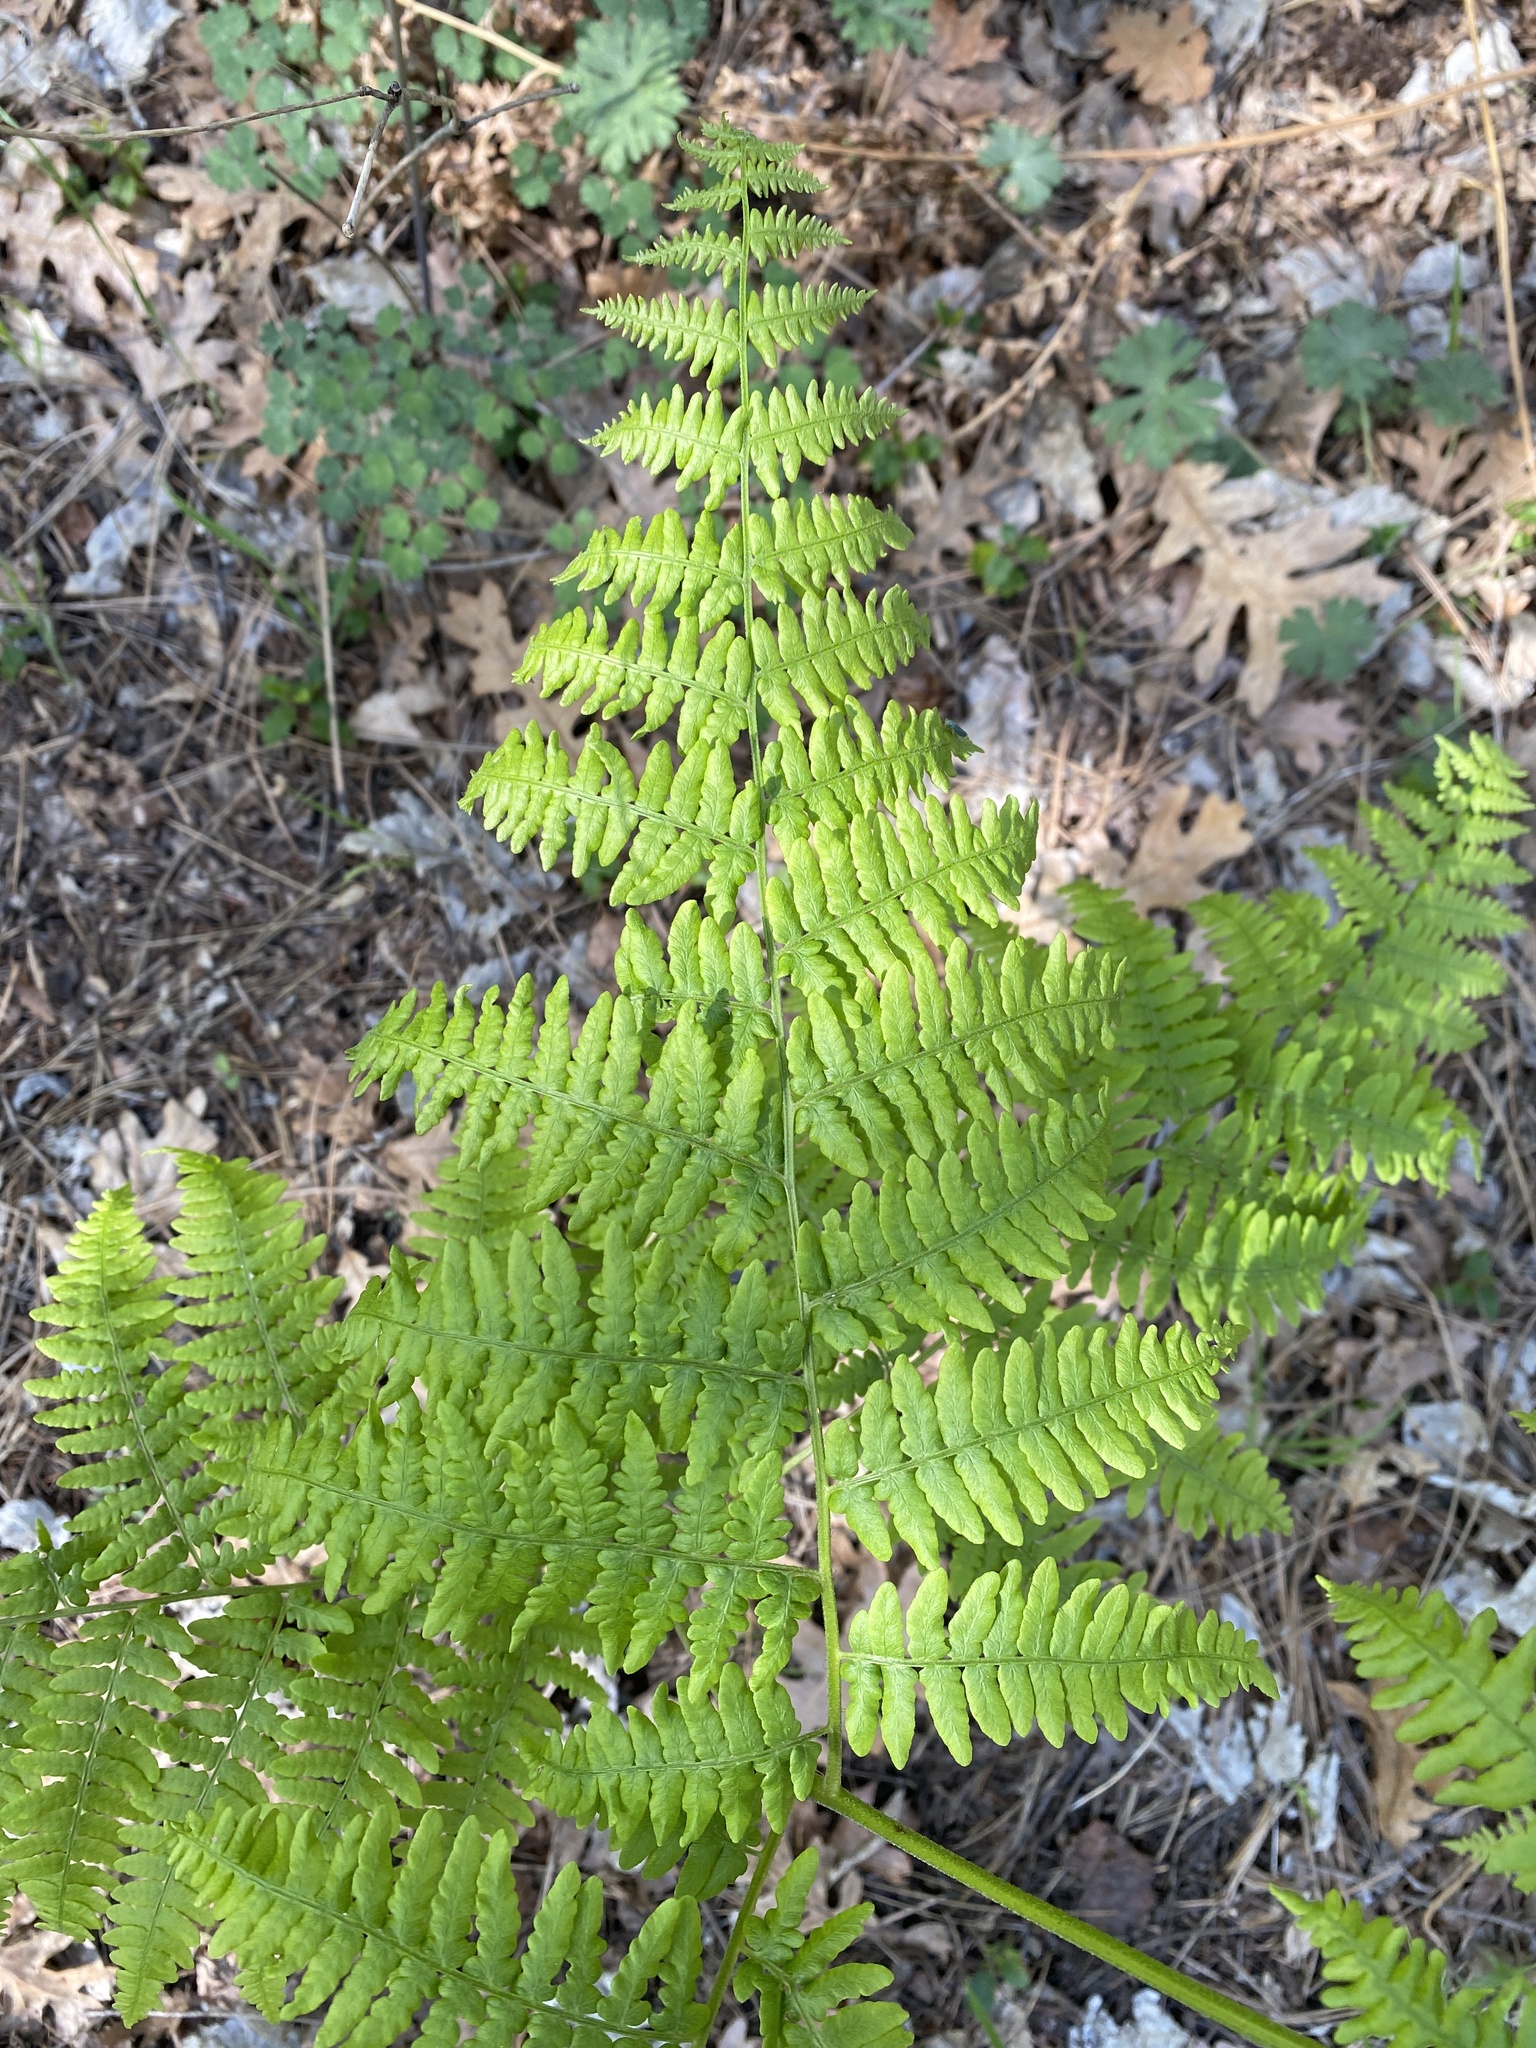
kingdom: Plantae
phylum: Tracheophyta
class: Polypodiopsida
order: Polypodiales
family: Dennstaedtiaceae
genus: Pteridium
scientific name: Pteridium aquilinum
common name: Bracken
